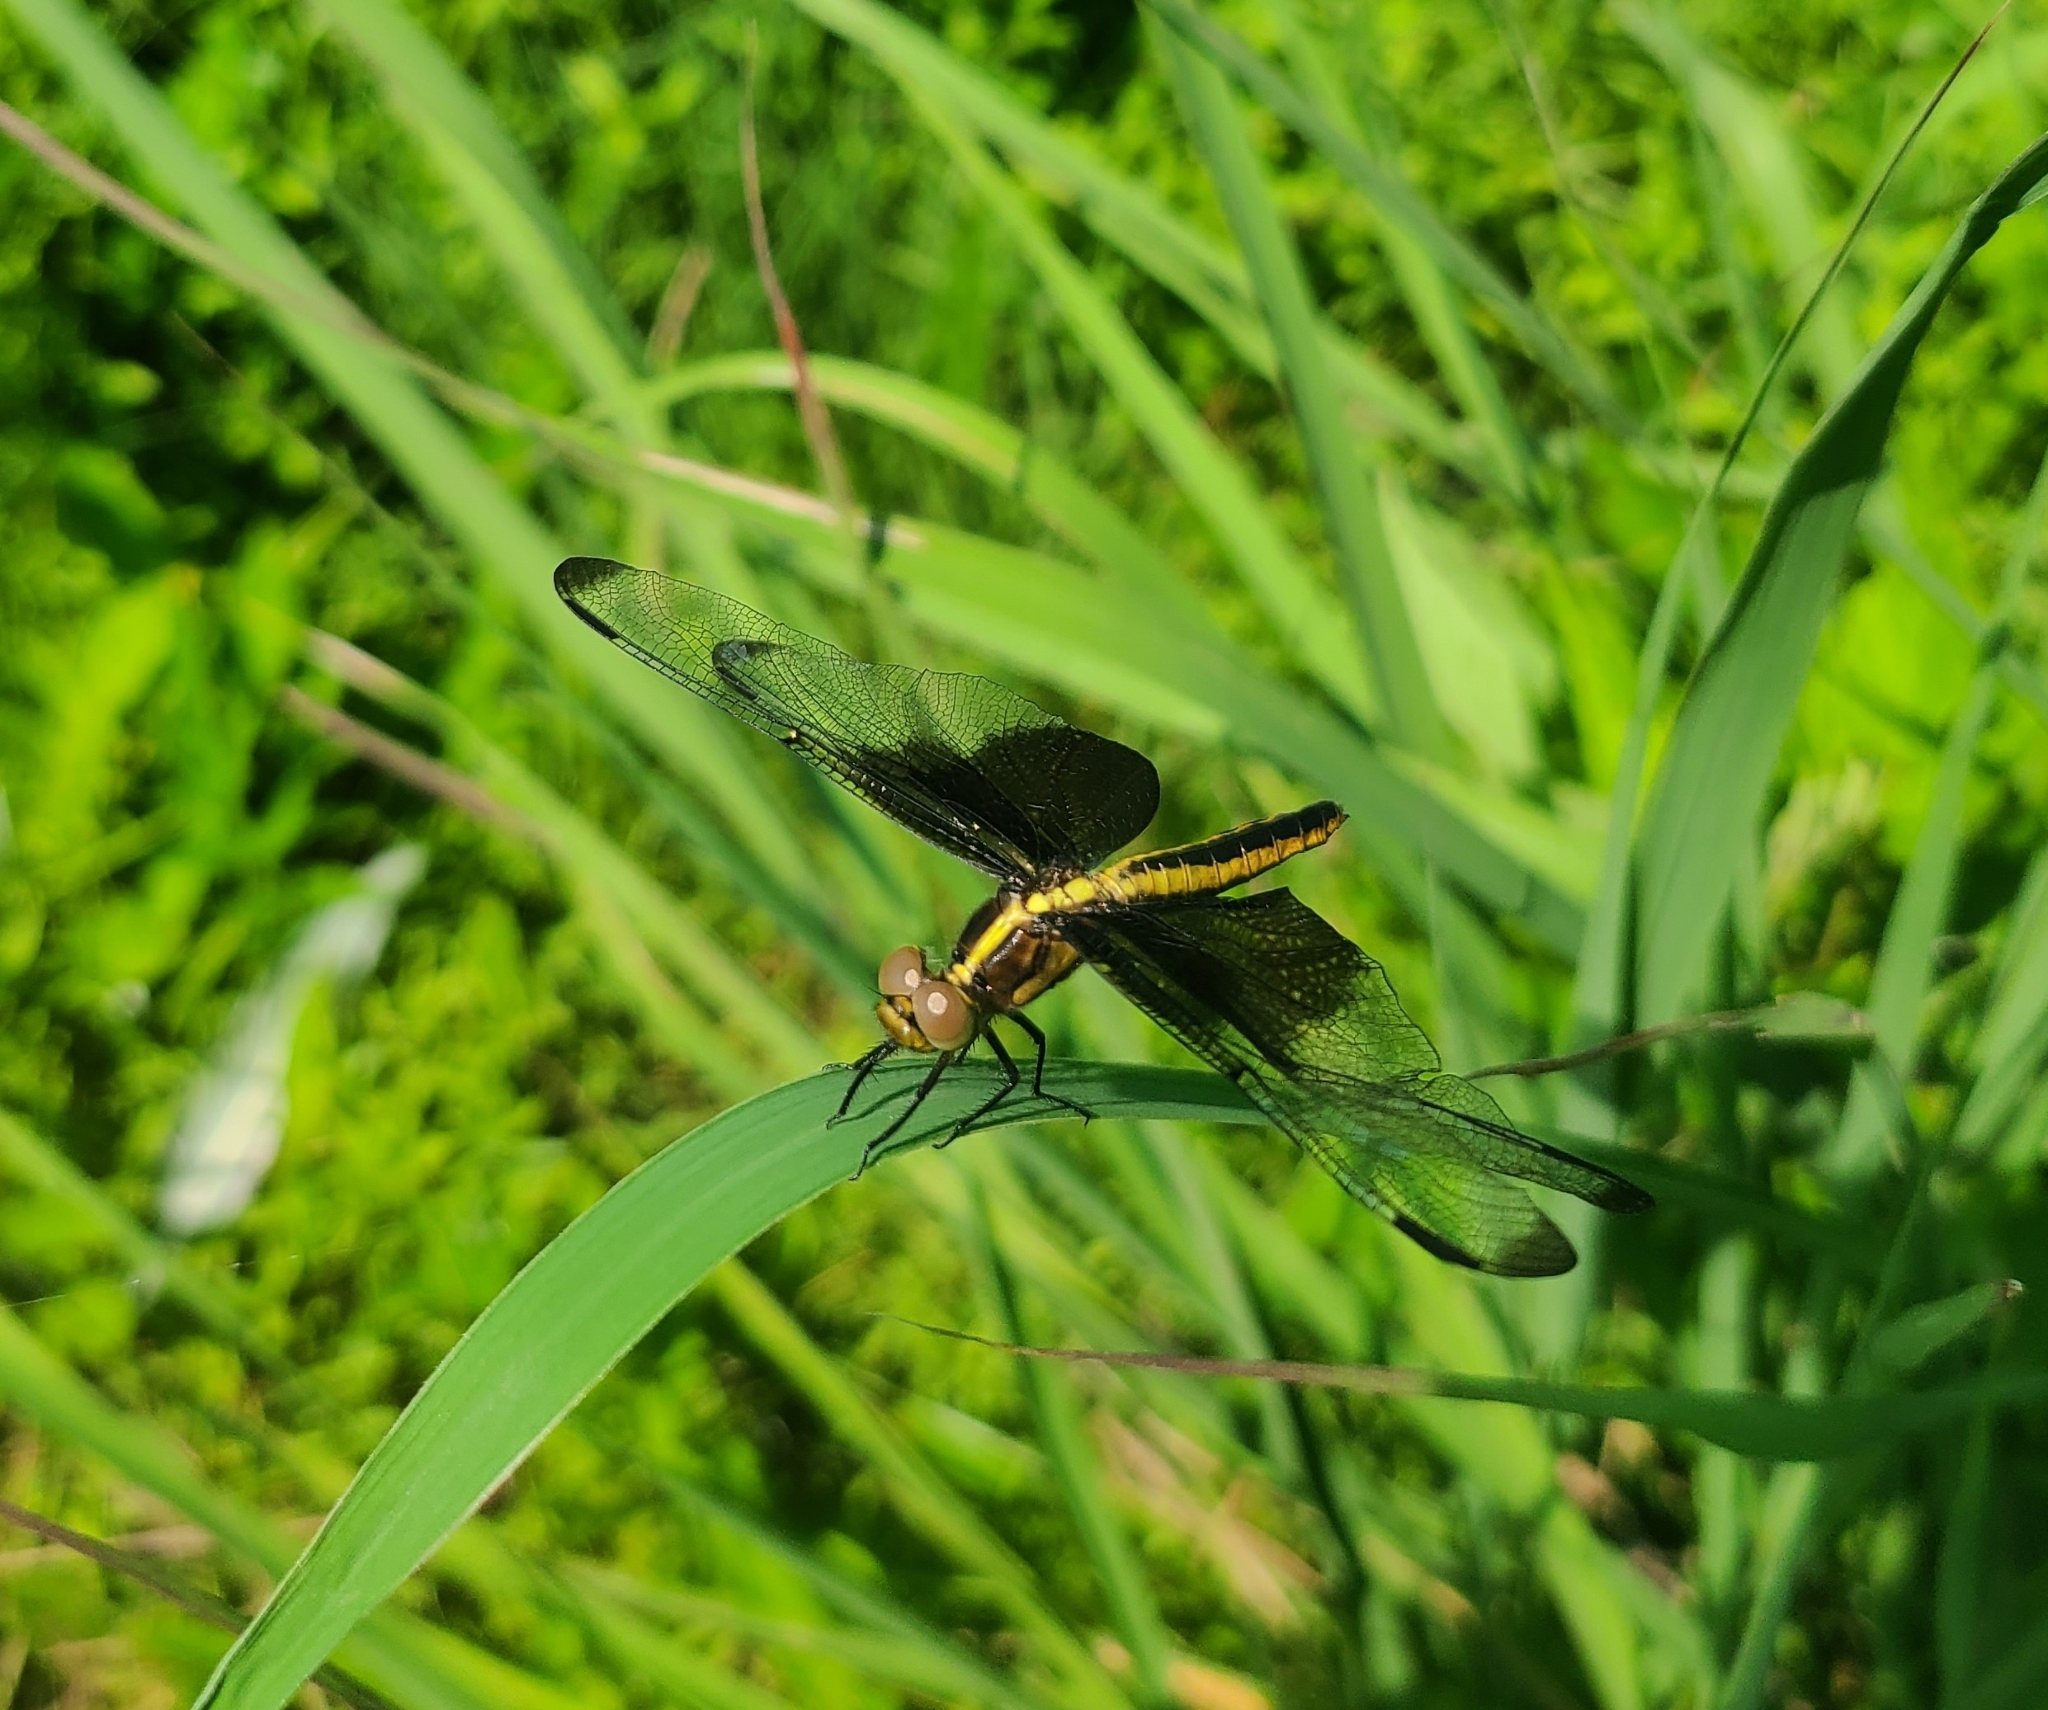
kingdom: Animalia
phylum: Arthropoda
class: Insecta
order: Odonata
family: Libellulidae
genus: Libellula
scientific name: Libellula luctuosa
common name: Widow skimmer
